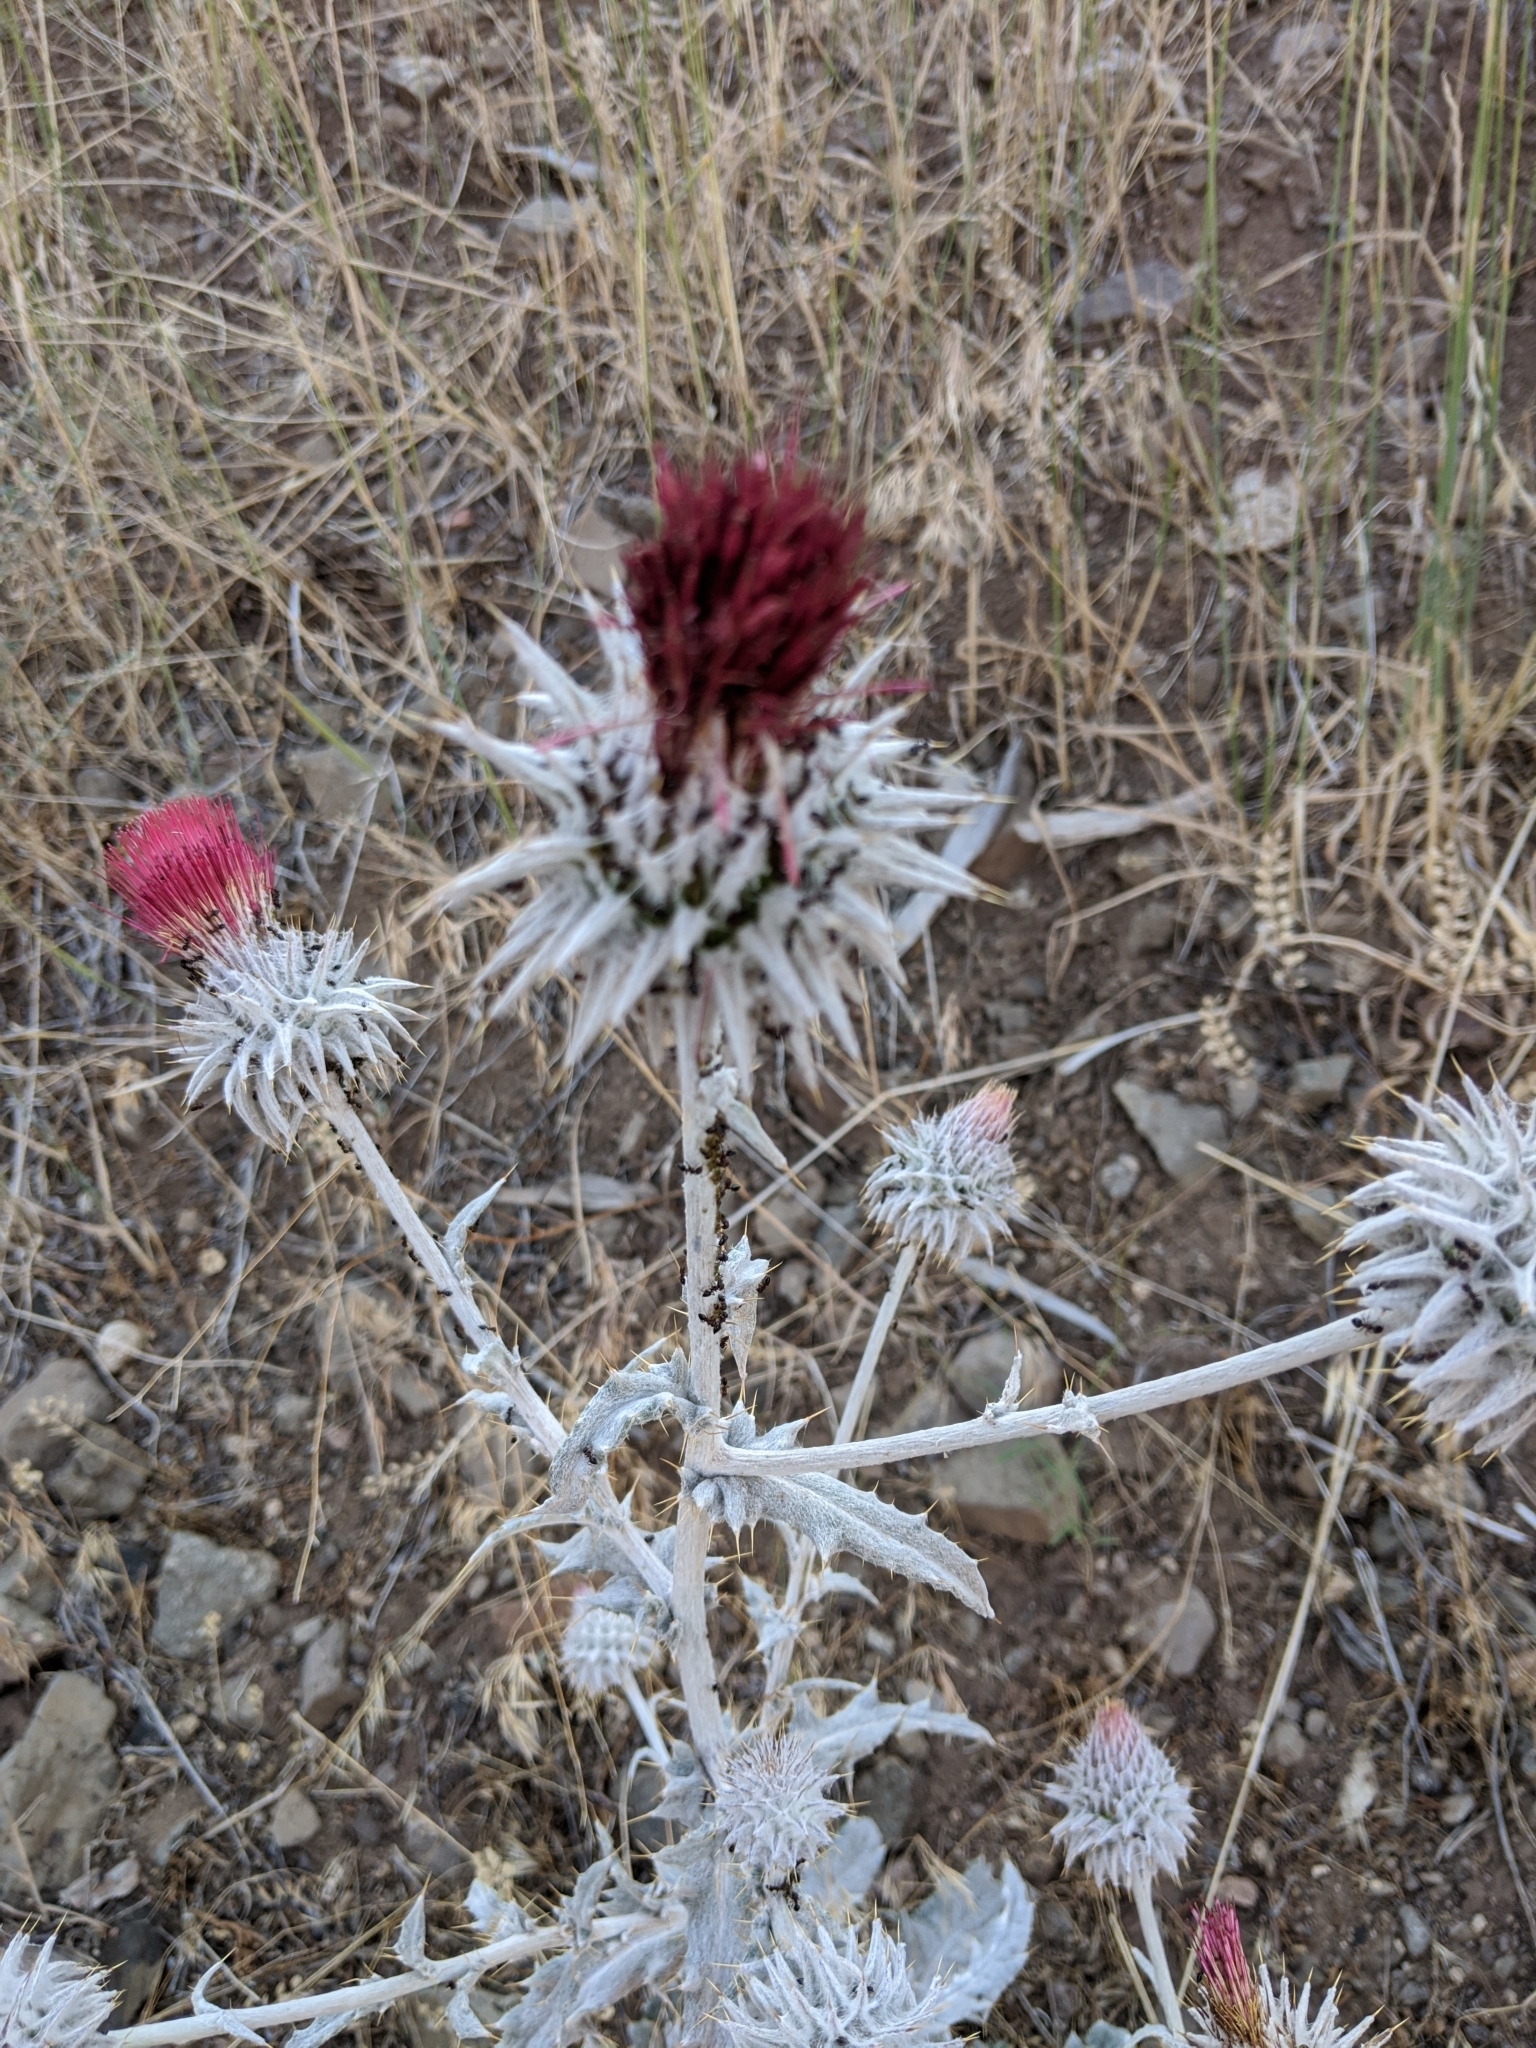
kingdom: Plantae
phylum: Tracheophyta
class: Magnoliopsida
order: Asterales
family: Asteraceae
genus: Cirsium
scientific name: Cirsium occidentale
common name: Western thistle
